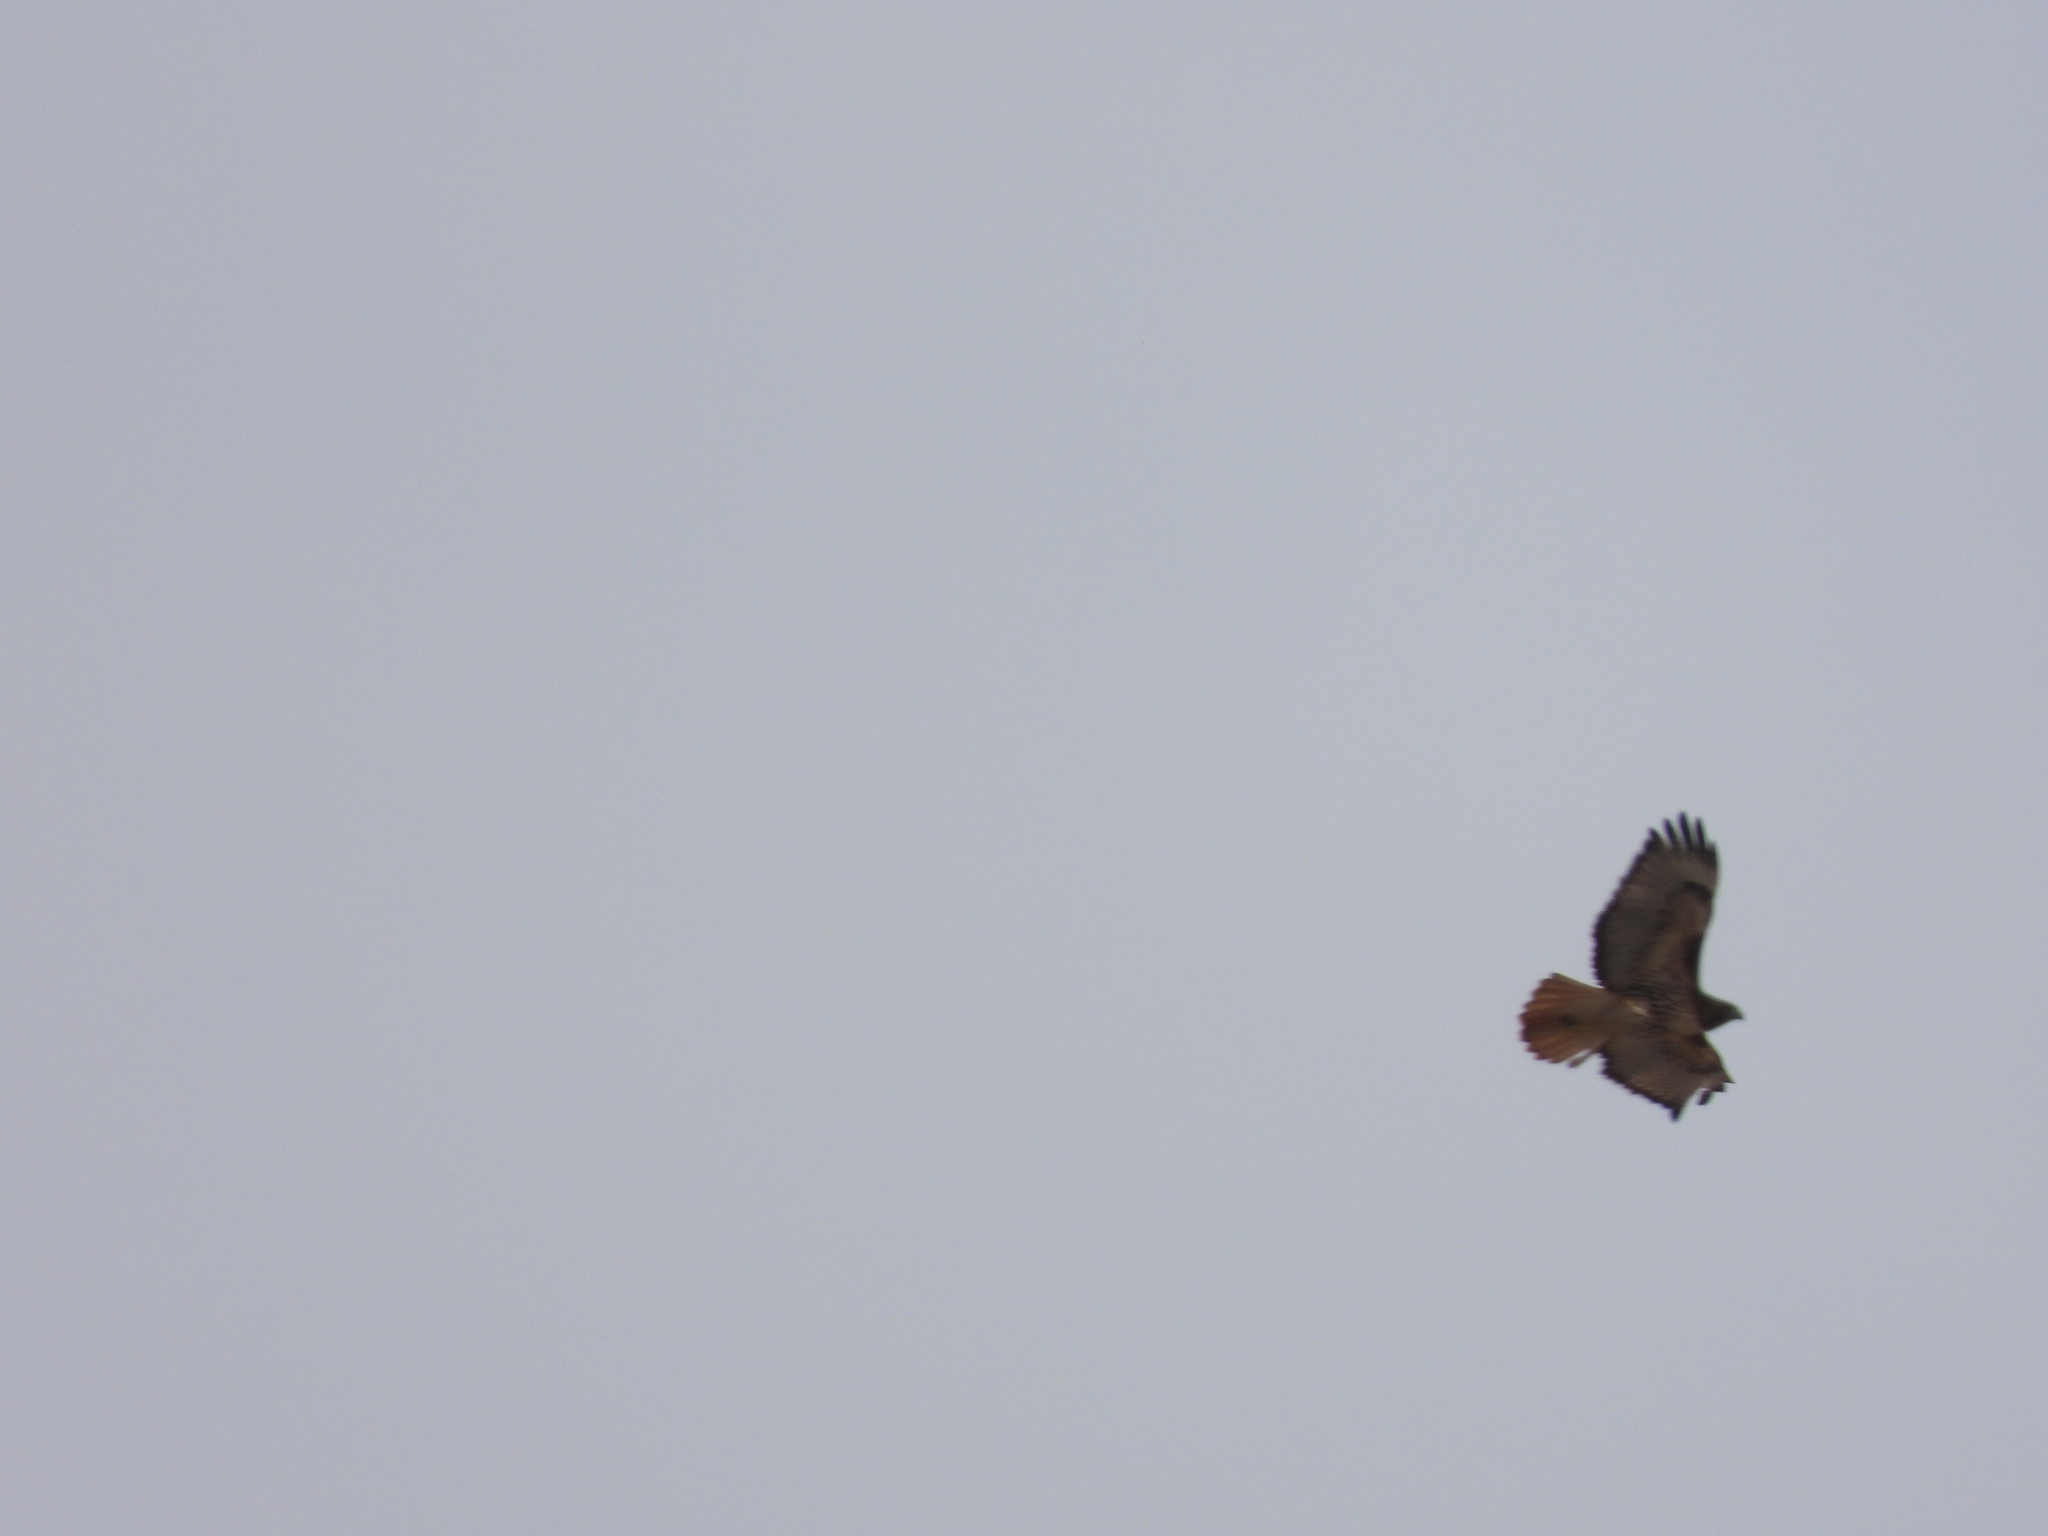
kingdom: Animalia
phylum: Chordata
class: Aves
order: Accipitriformes
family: Accipitridae
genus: Buteo
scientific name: Buteo jamaicensis
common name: Red-tailed hawk
